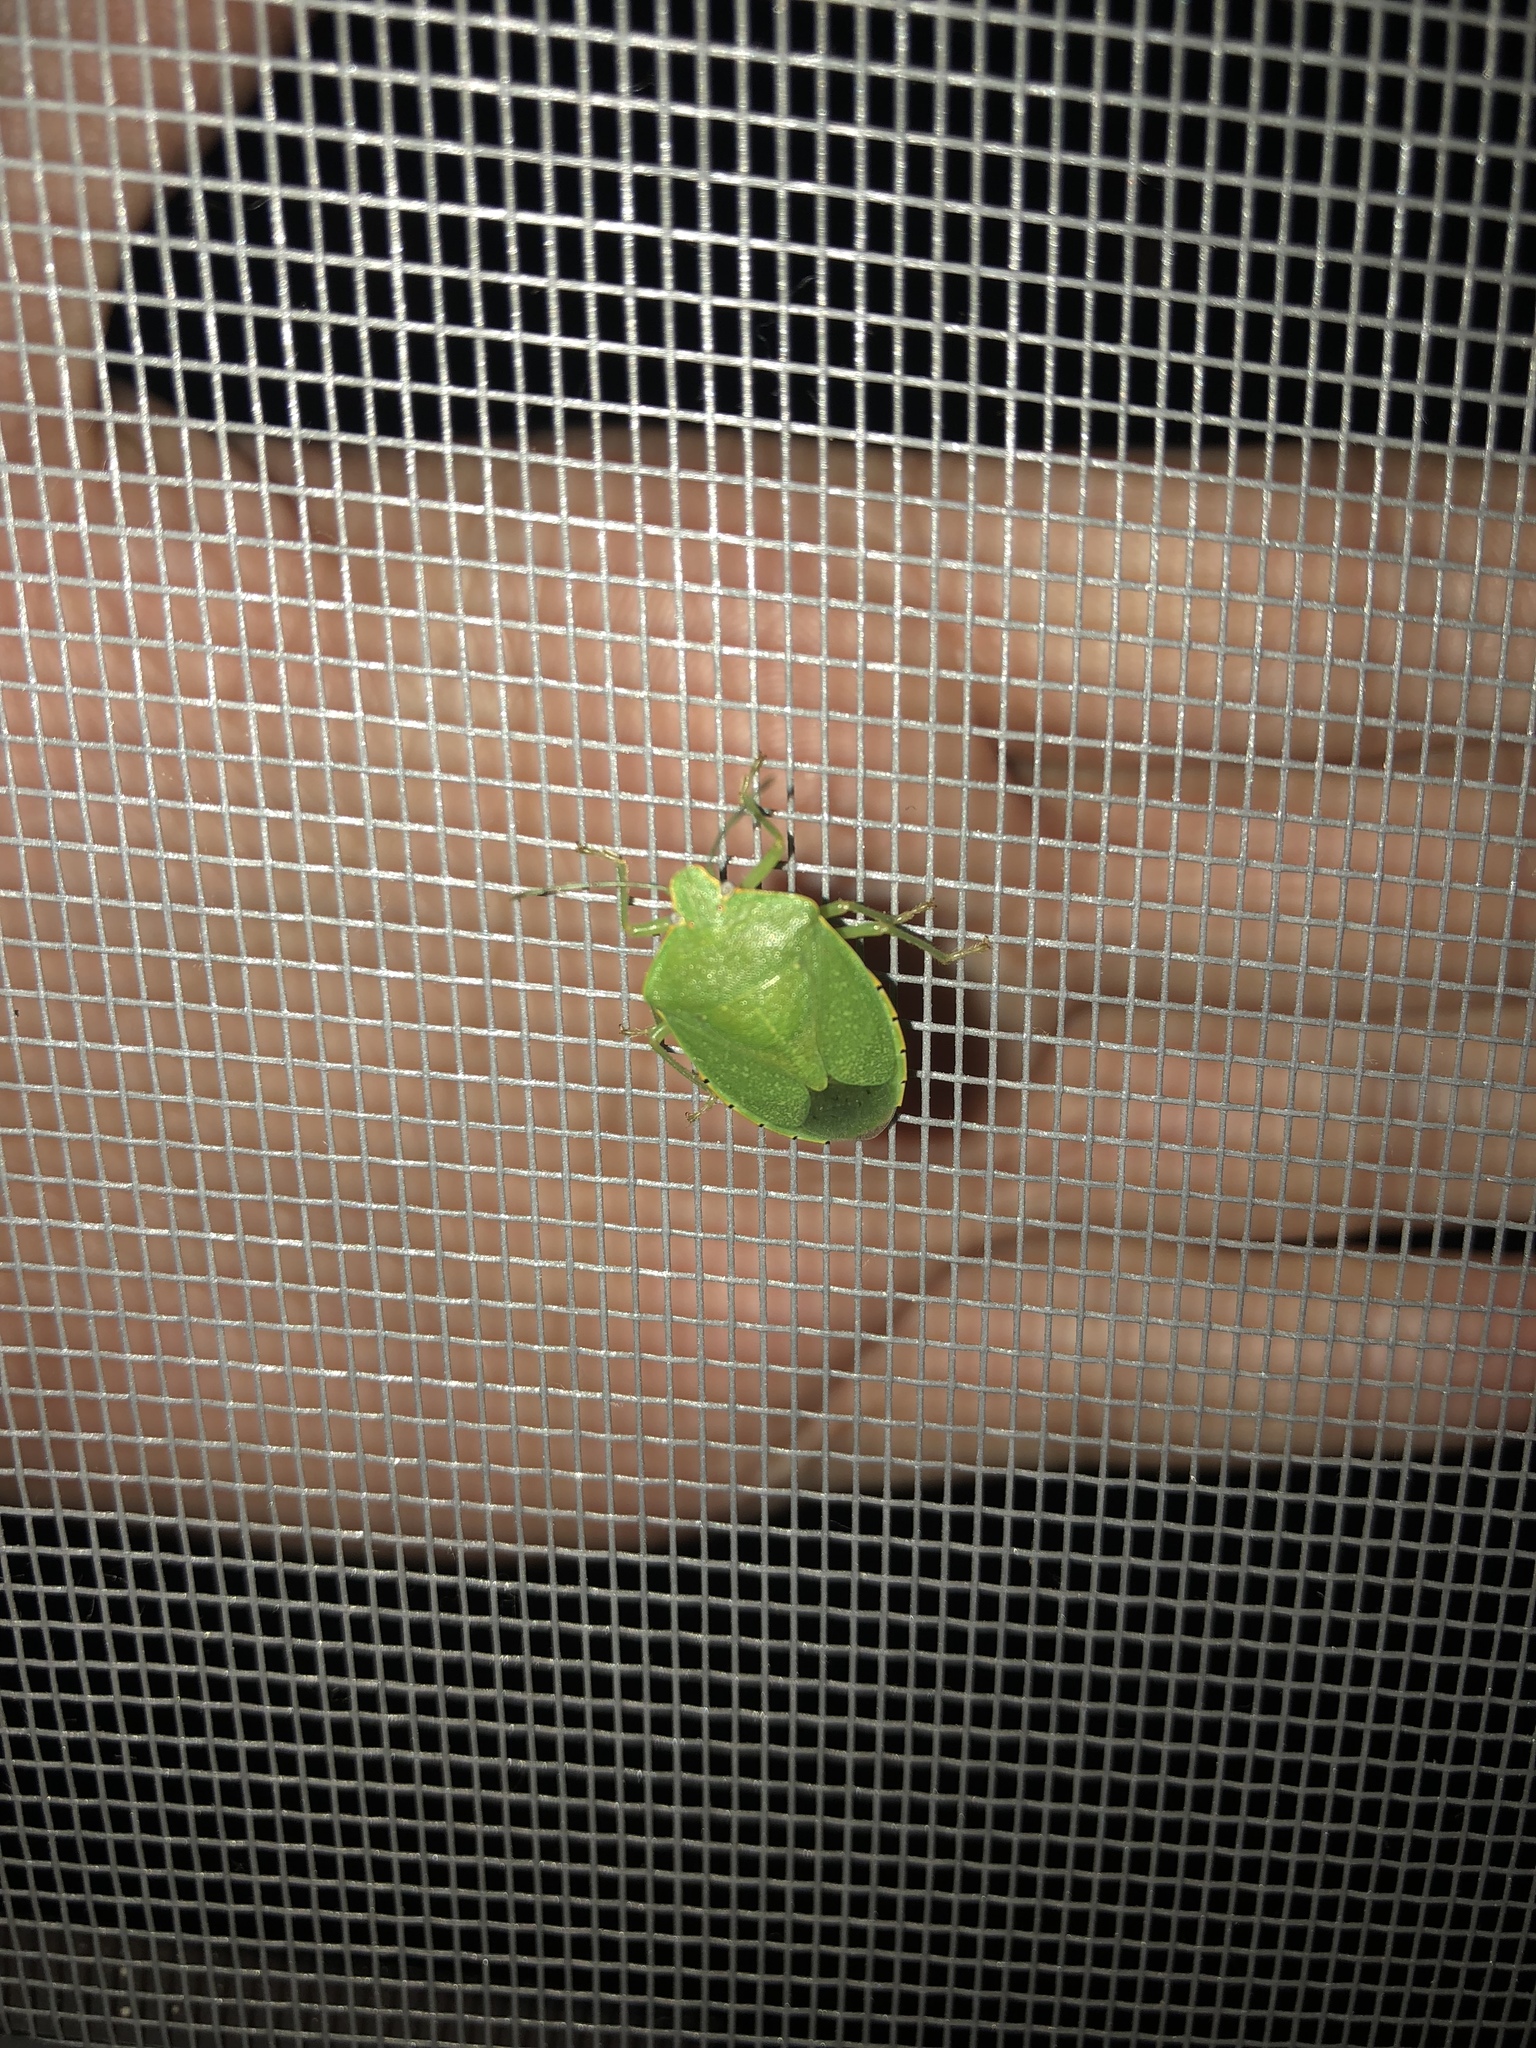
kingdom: Animalia
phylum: Arthropoda
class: Insecta
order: Hemiptera
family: Pentatomidae
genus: Chinavia
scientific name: Chinavia hilaris
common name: Green stink bug
